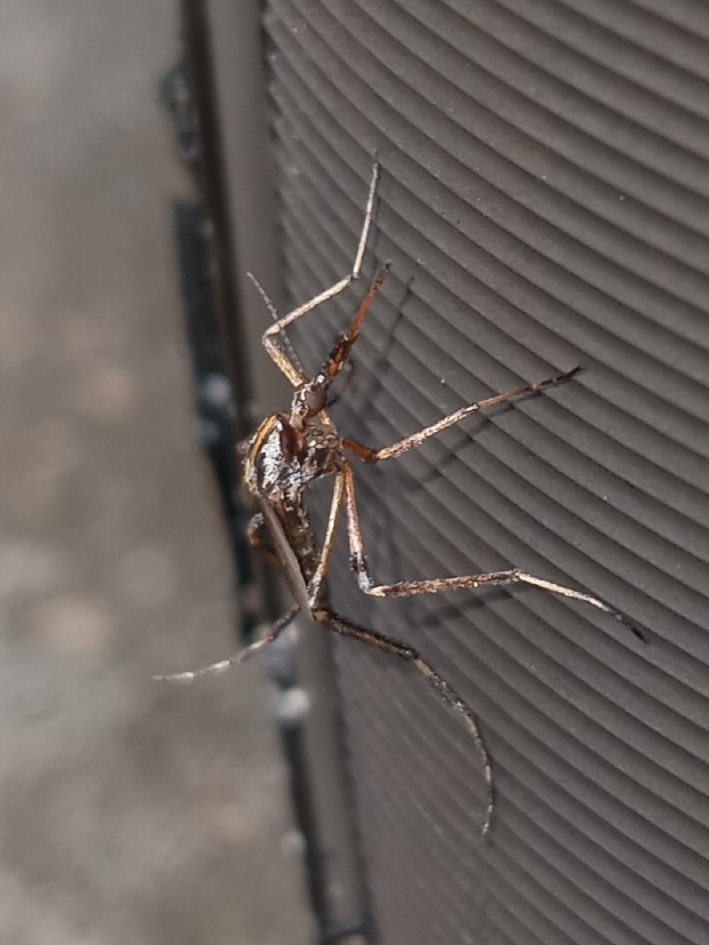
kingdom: Animalia
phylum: Arthropoda
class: Insecta
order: Diptera
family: Culicidae
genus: Psorophora
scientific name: Psorophora ciliata
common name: Gallinipper
